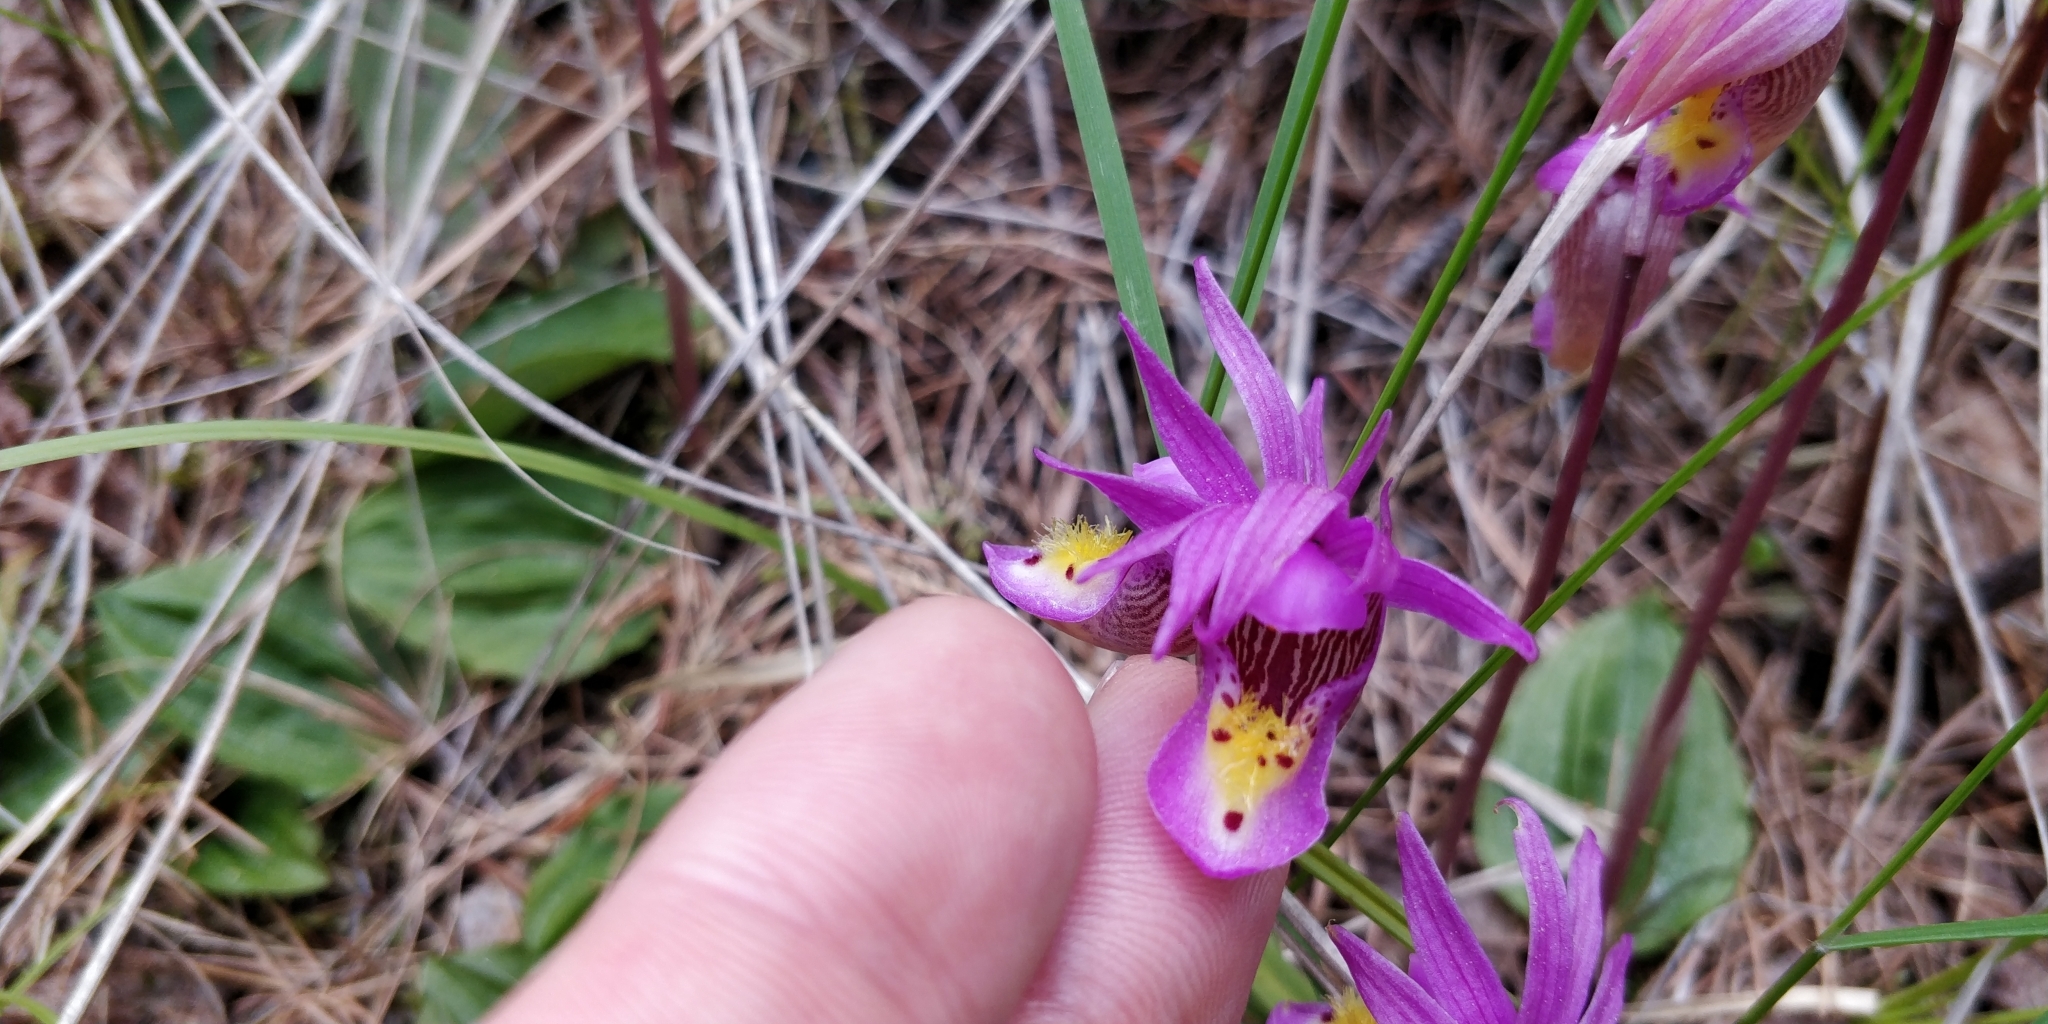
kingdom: Plantae
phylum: Tracheophyta
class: Liliopsida
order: Asparagales
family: Orchidaceae
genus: Calypso
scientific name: Calypso bulbosa
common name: Calypso
